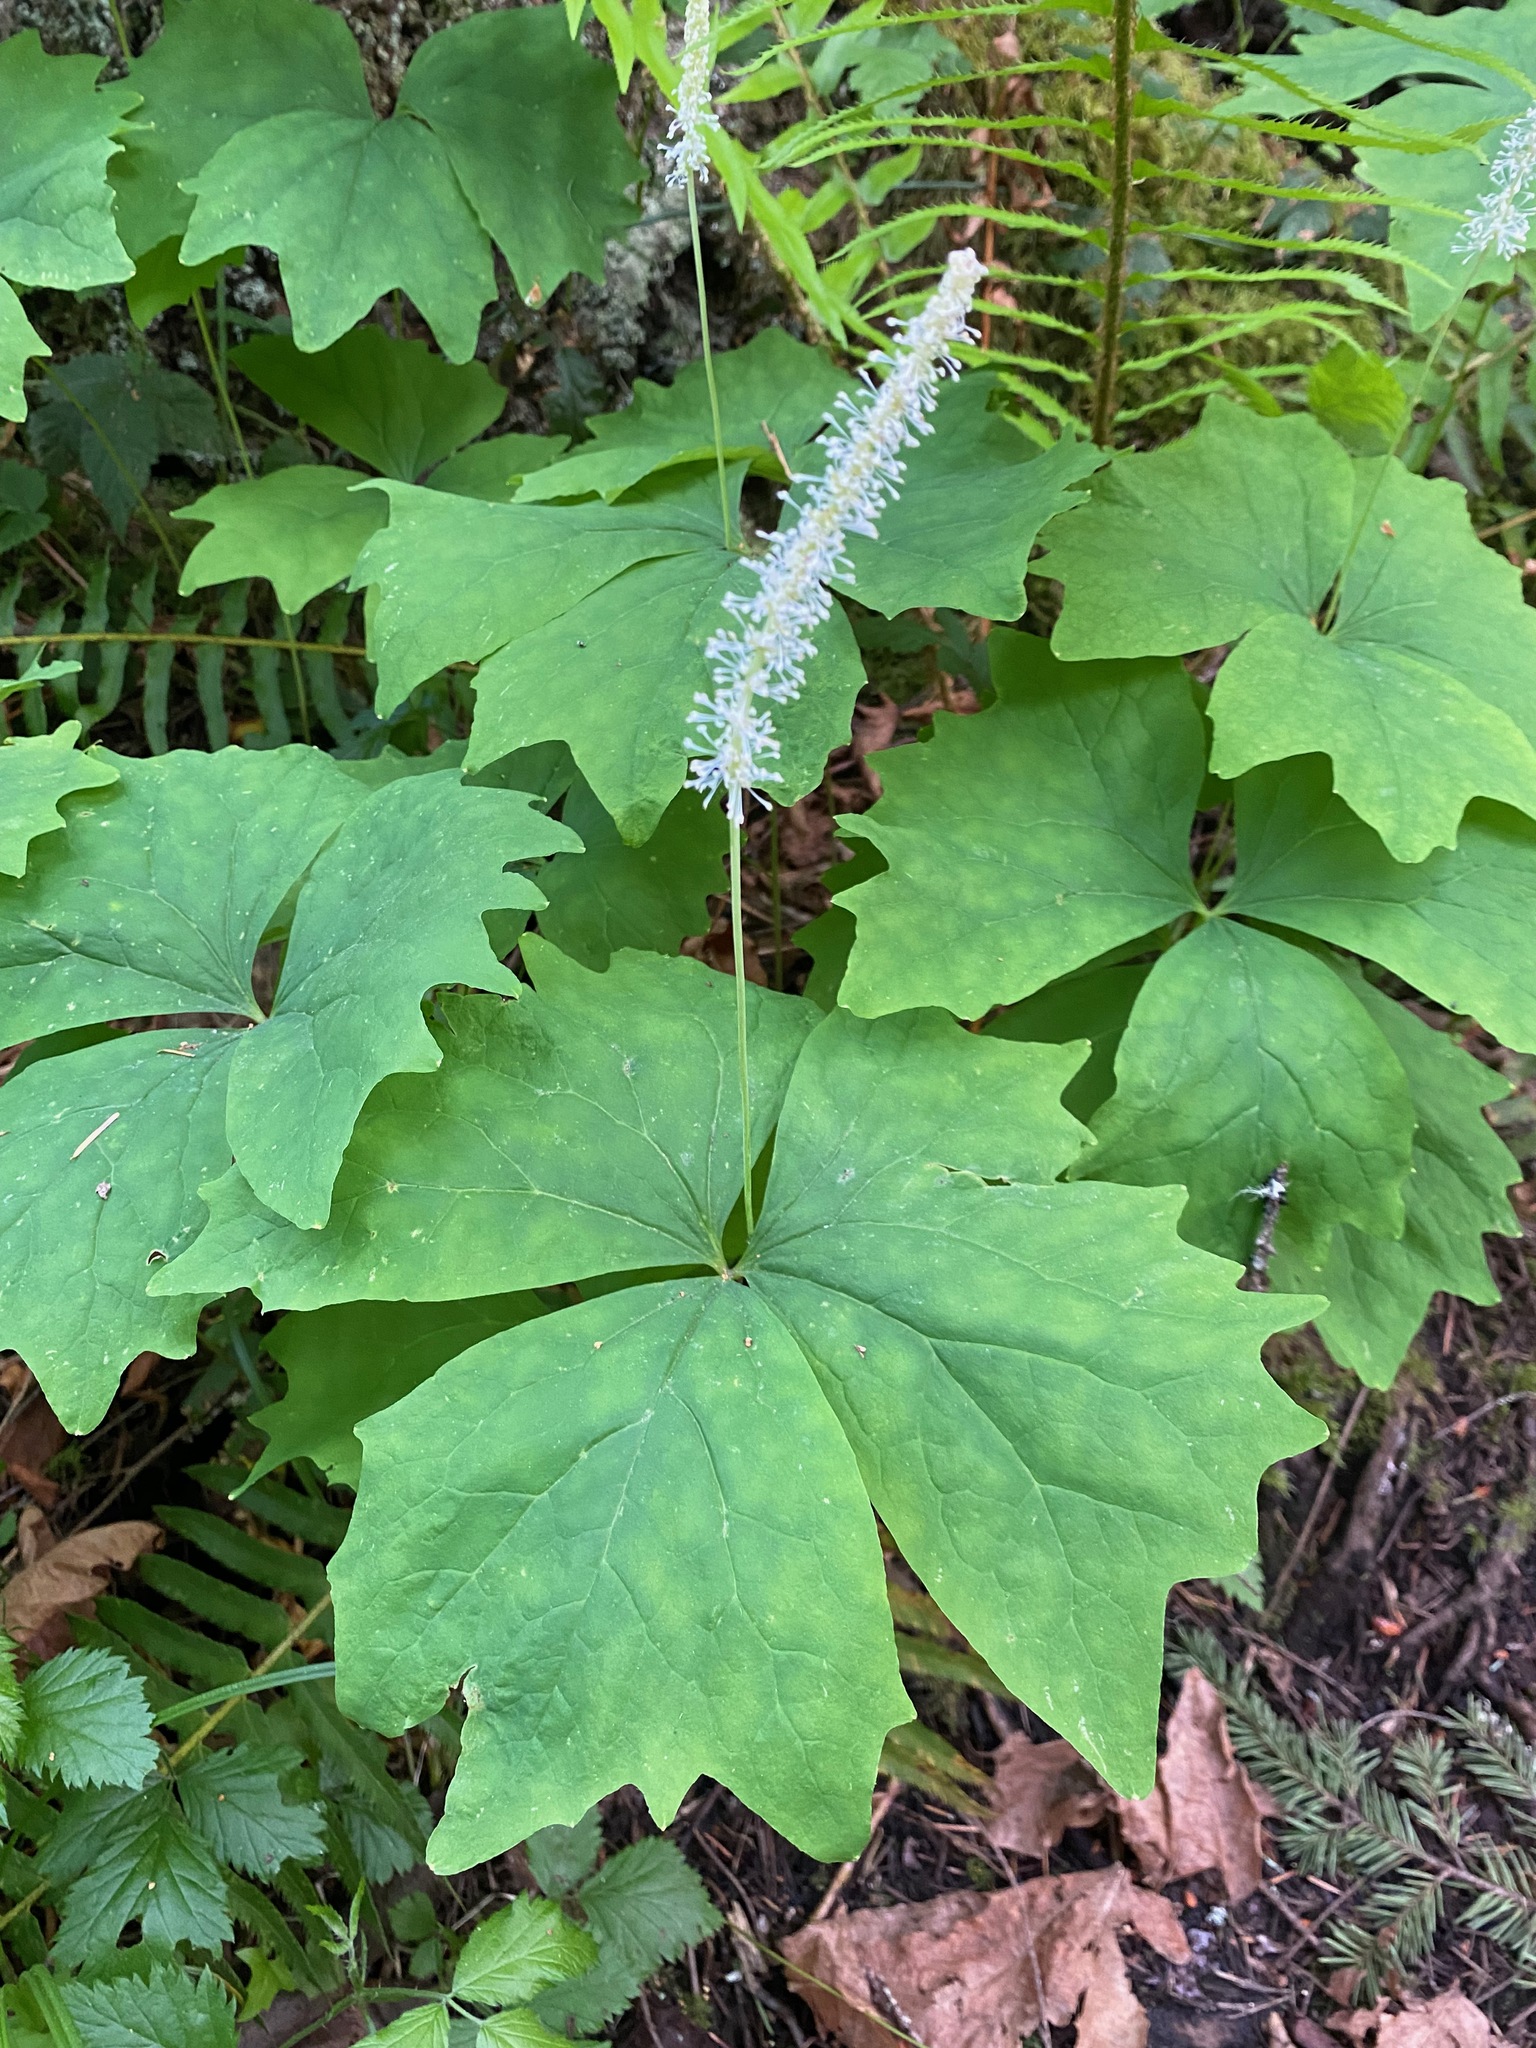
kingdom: Plantae
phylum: Tracheophyta
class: Magnoliopsida
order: Ranunculales
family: Berberidaceae
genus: Achlys
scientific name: Achlys triphylla
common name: Vanilla-leaf
